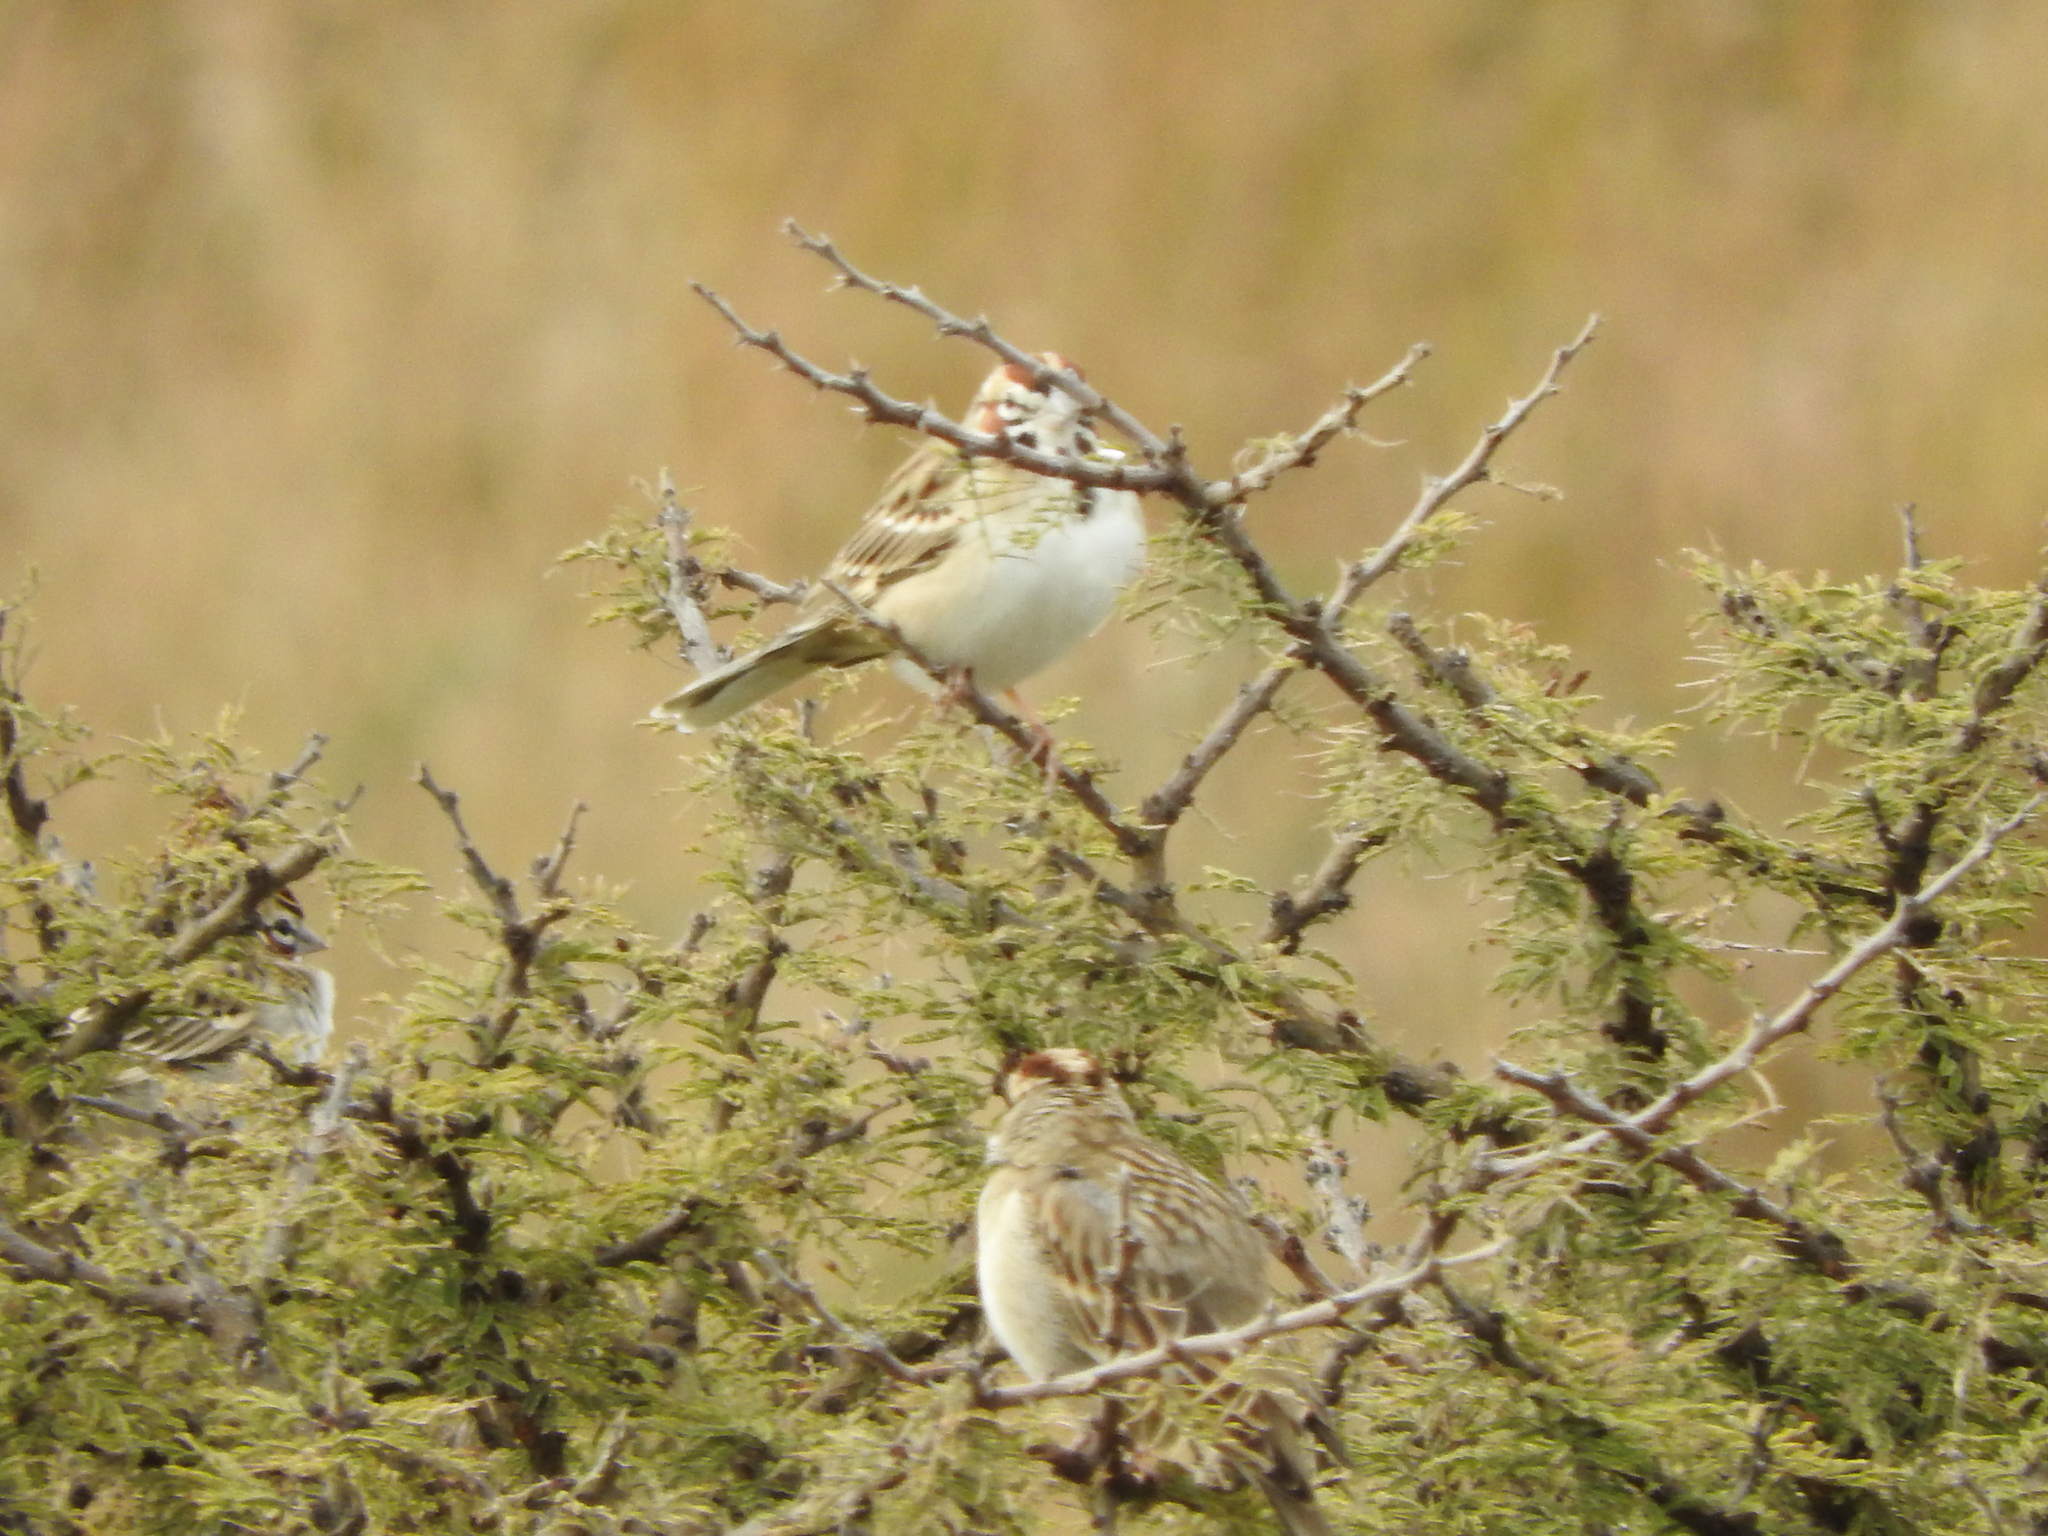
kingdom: Animalia
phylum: Chordata
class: Aves
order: Passeriformes
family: Passerellidae
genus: Chondestes
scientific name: Chondestes grammacus
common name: Lark sparrow
